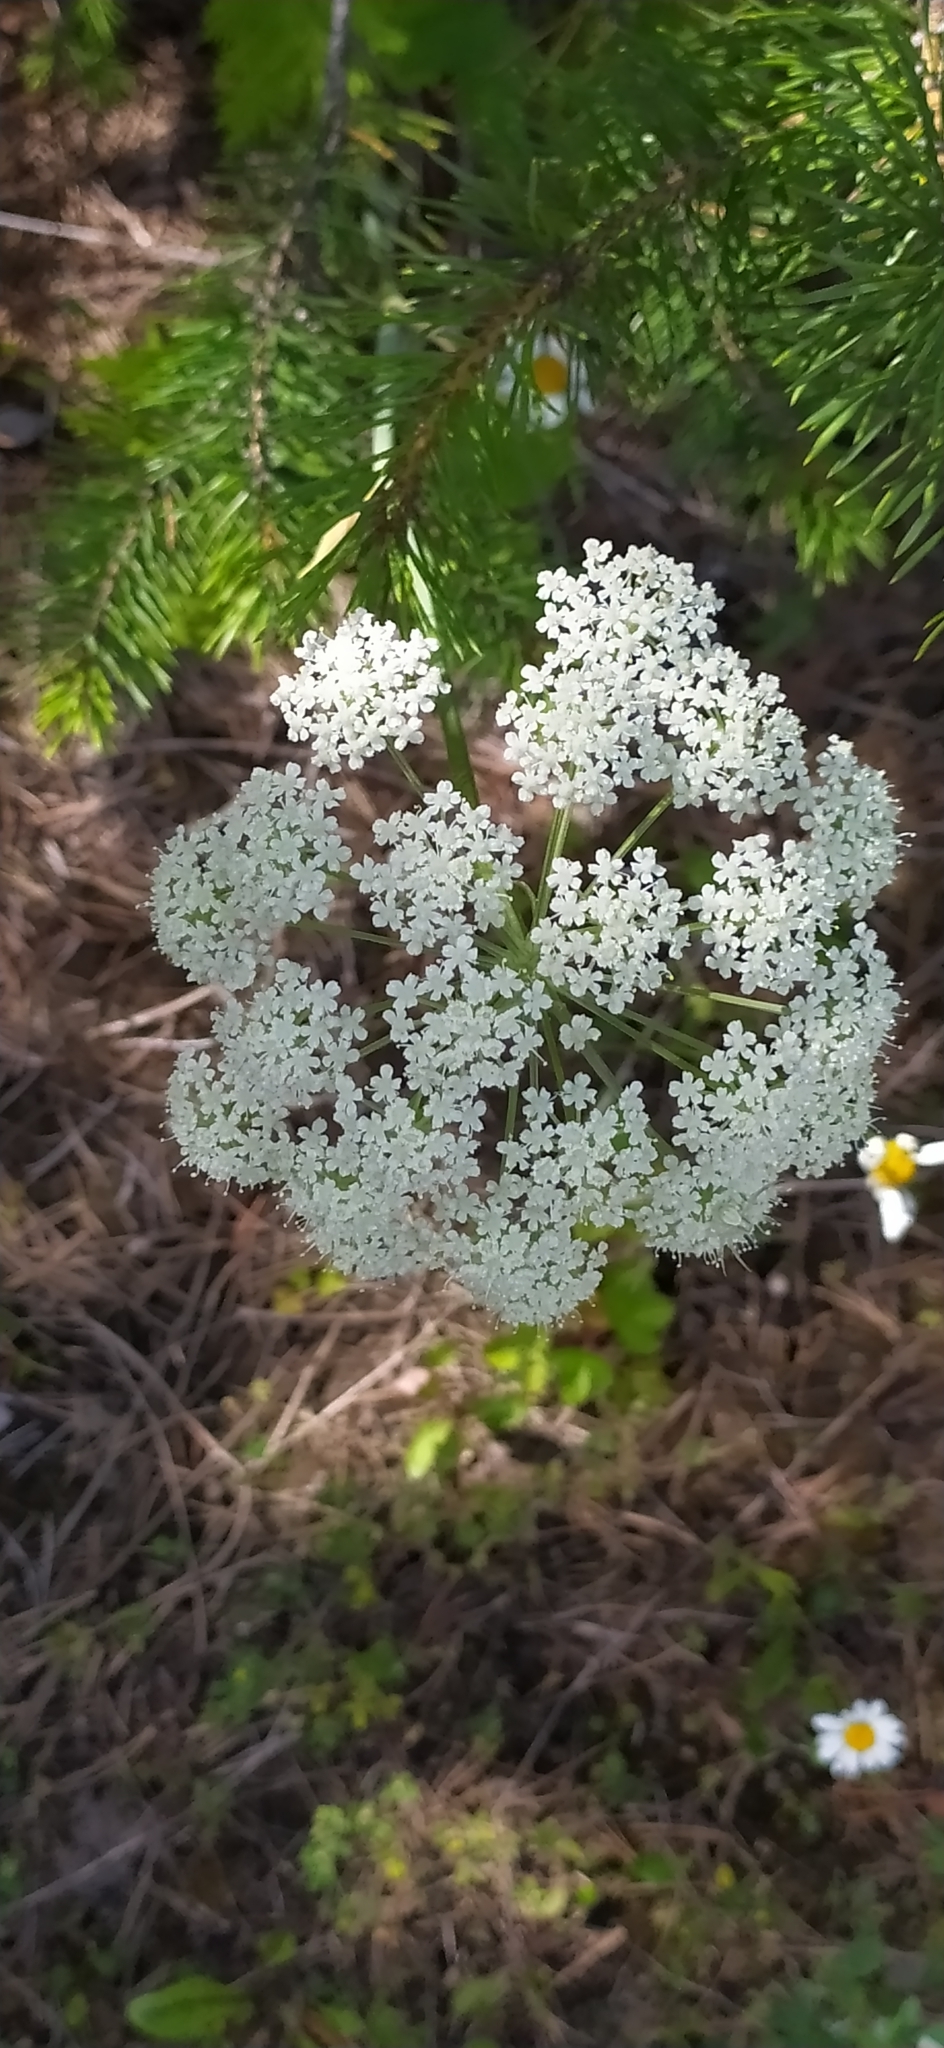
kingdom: Plantae
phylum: Tracheophyta
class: Magnoliopsida
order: Apiales
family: Apiaceae
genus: Seseli
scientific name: Seseli krylovii
